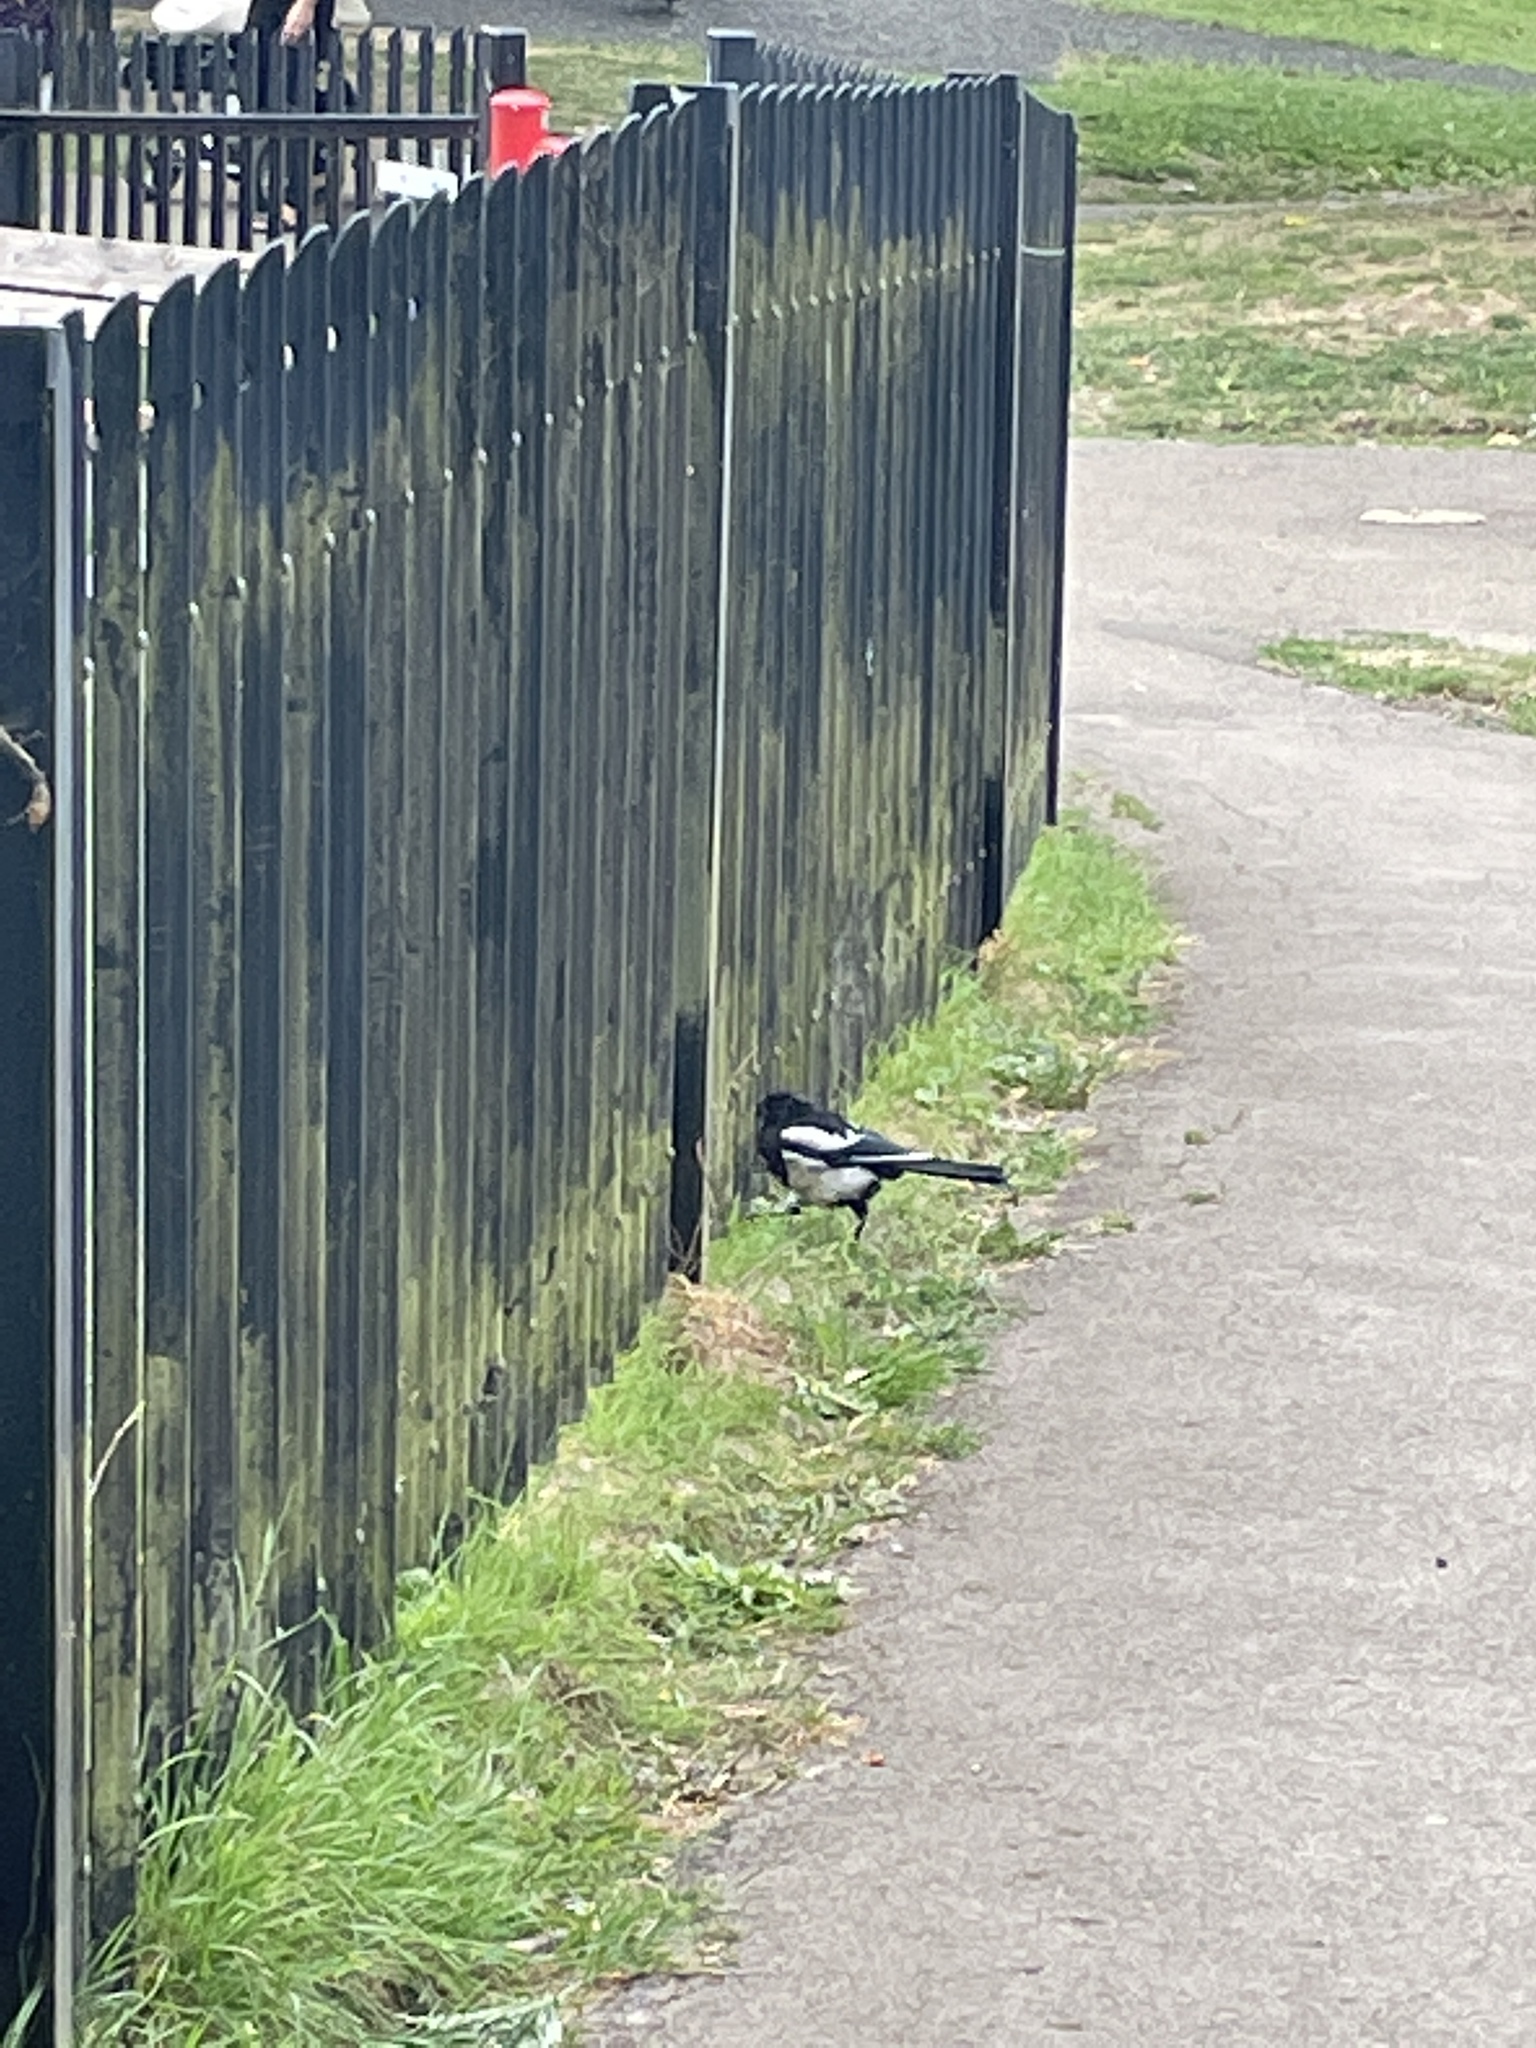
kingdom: Animalia
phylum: Chordata
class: Aves
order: Passeriformes
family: Corvidae
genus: Pica
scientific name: Pica pica
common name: Eurasian magpie
